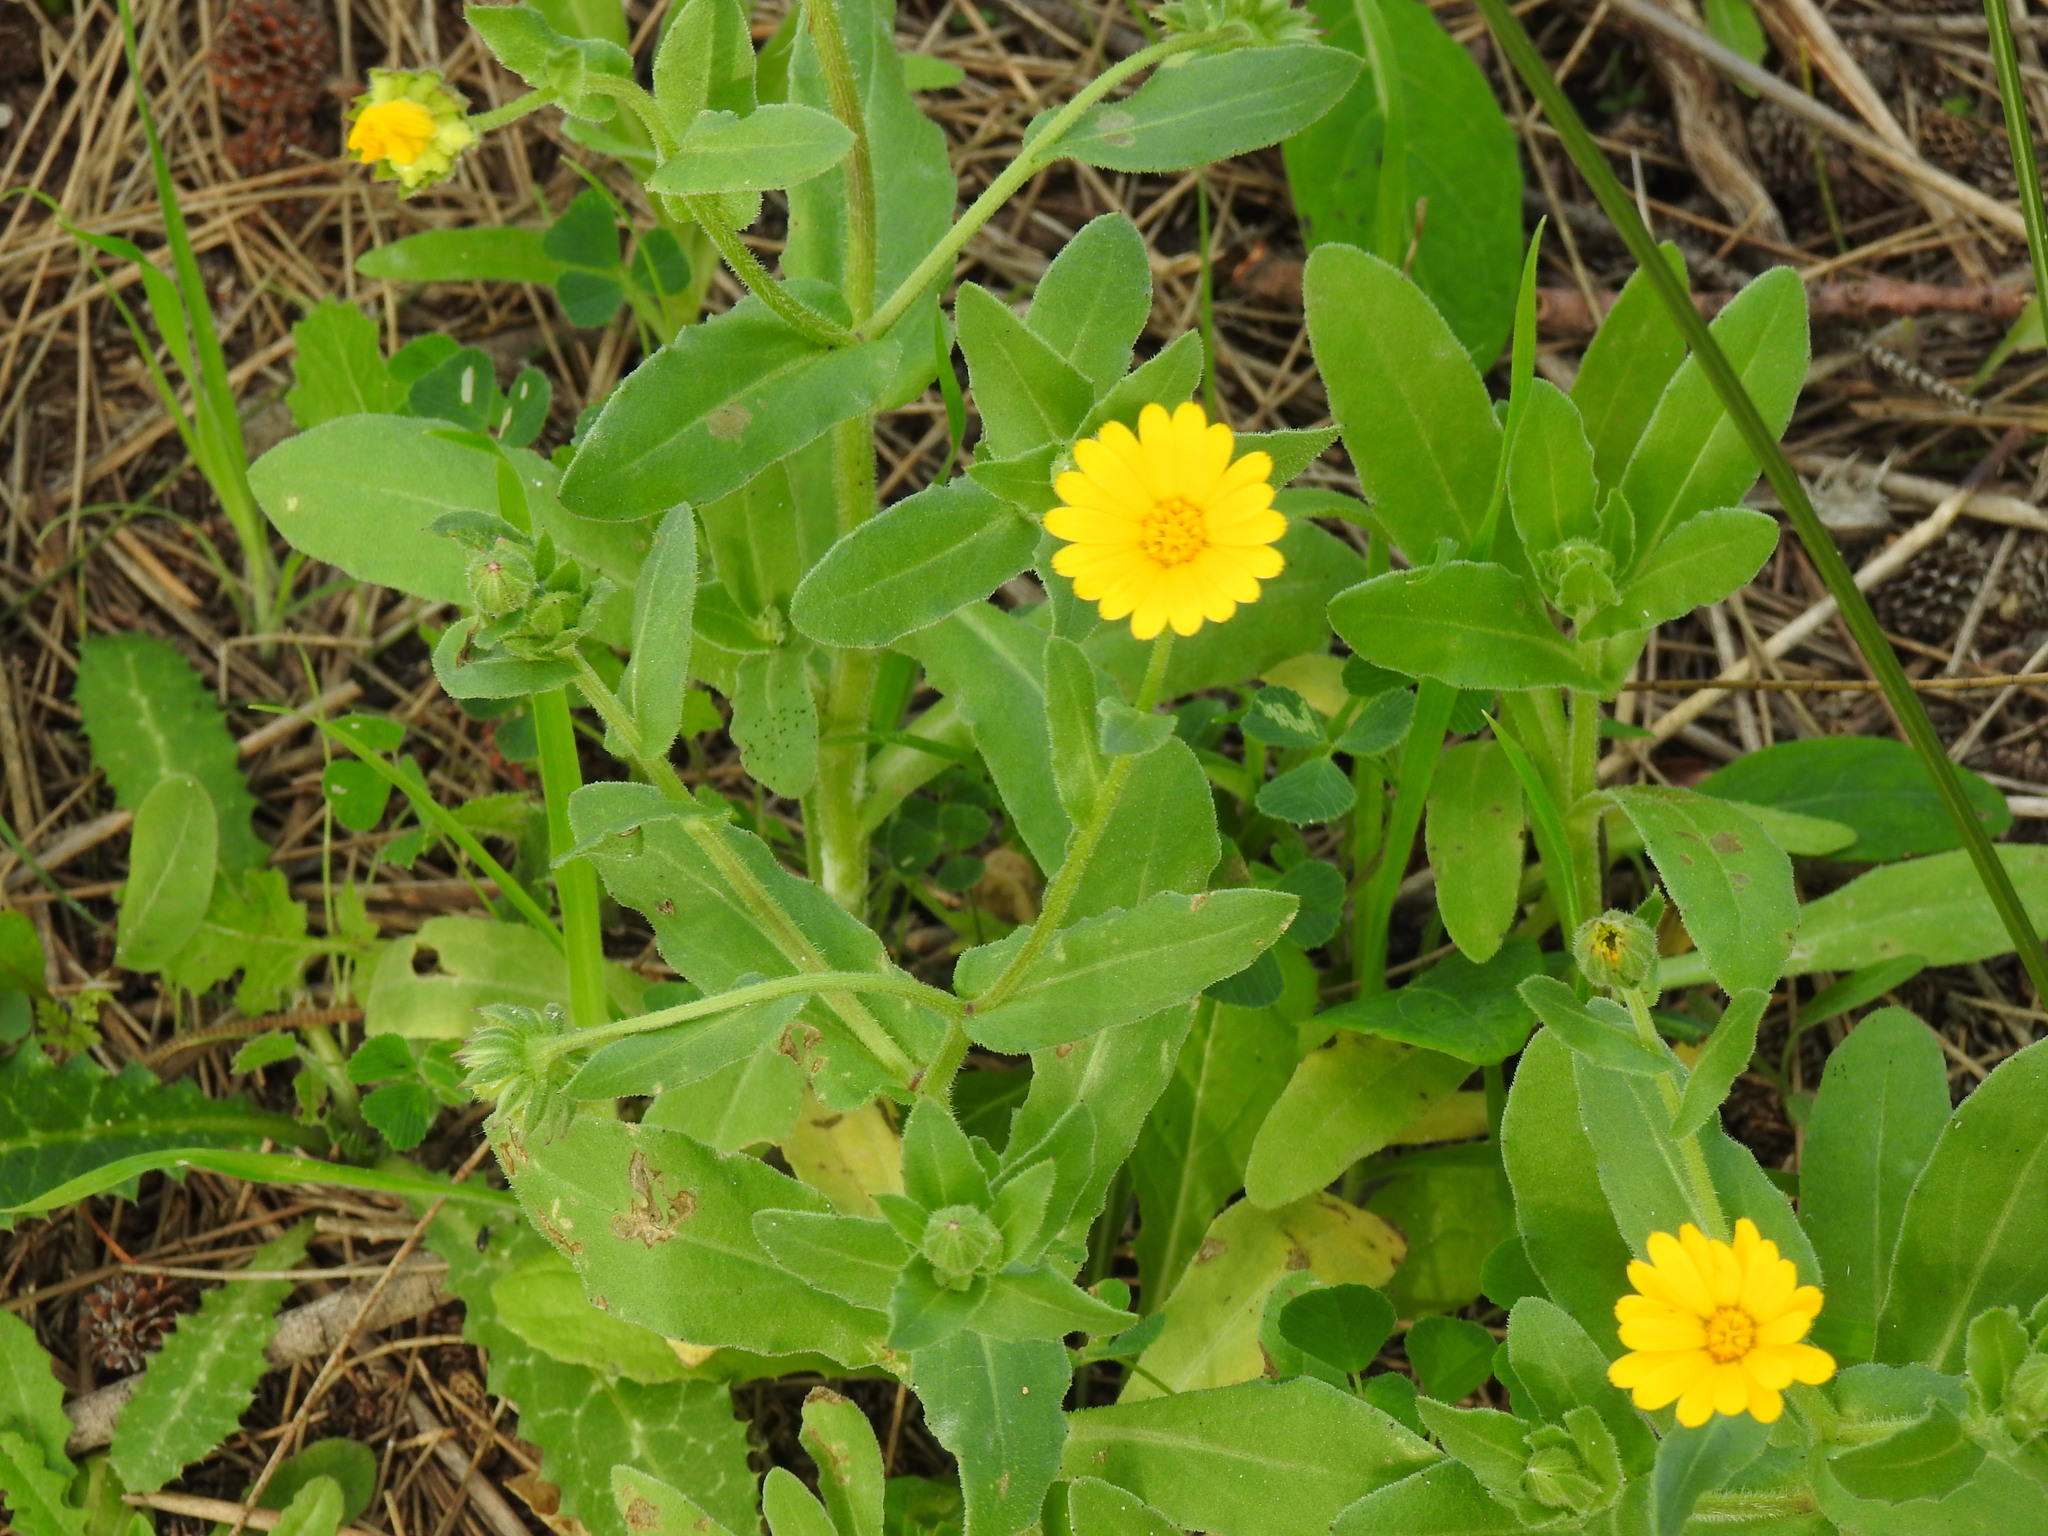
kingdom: Plantae
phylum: Tracheophyta
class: Magnoliopsida
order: Asterales
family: Asteraceae
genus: Calendula
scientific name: Calendula arvensis
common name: Field marigold
